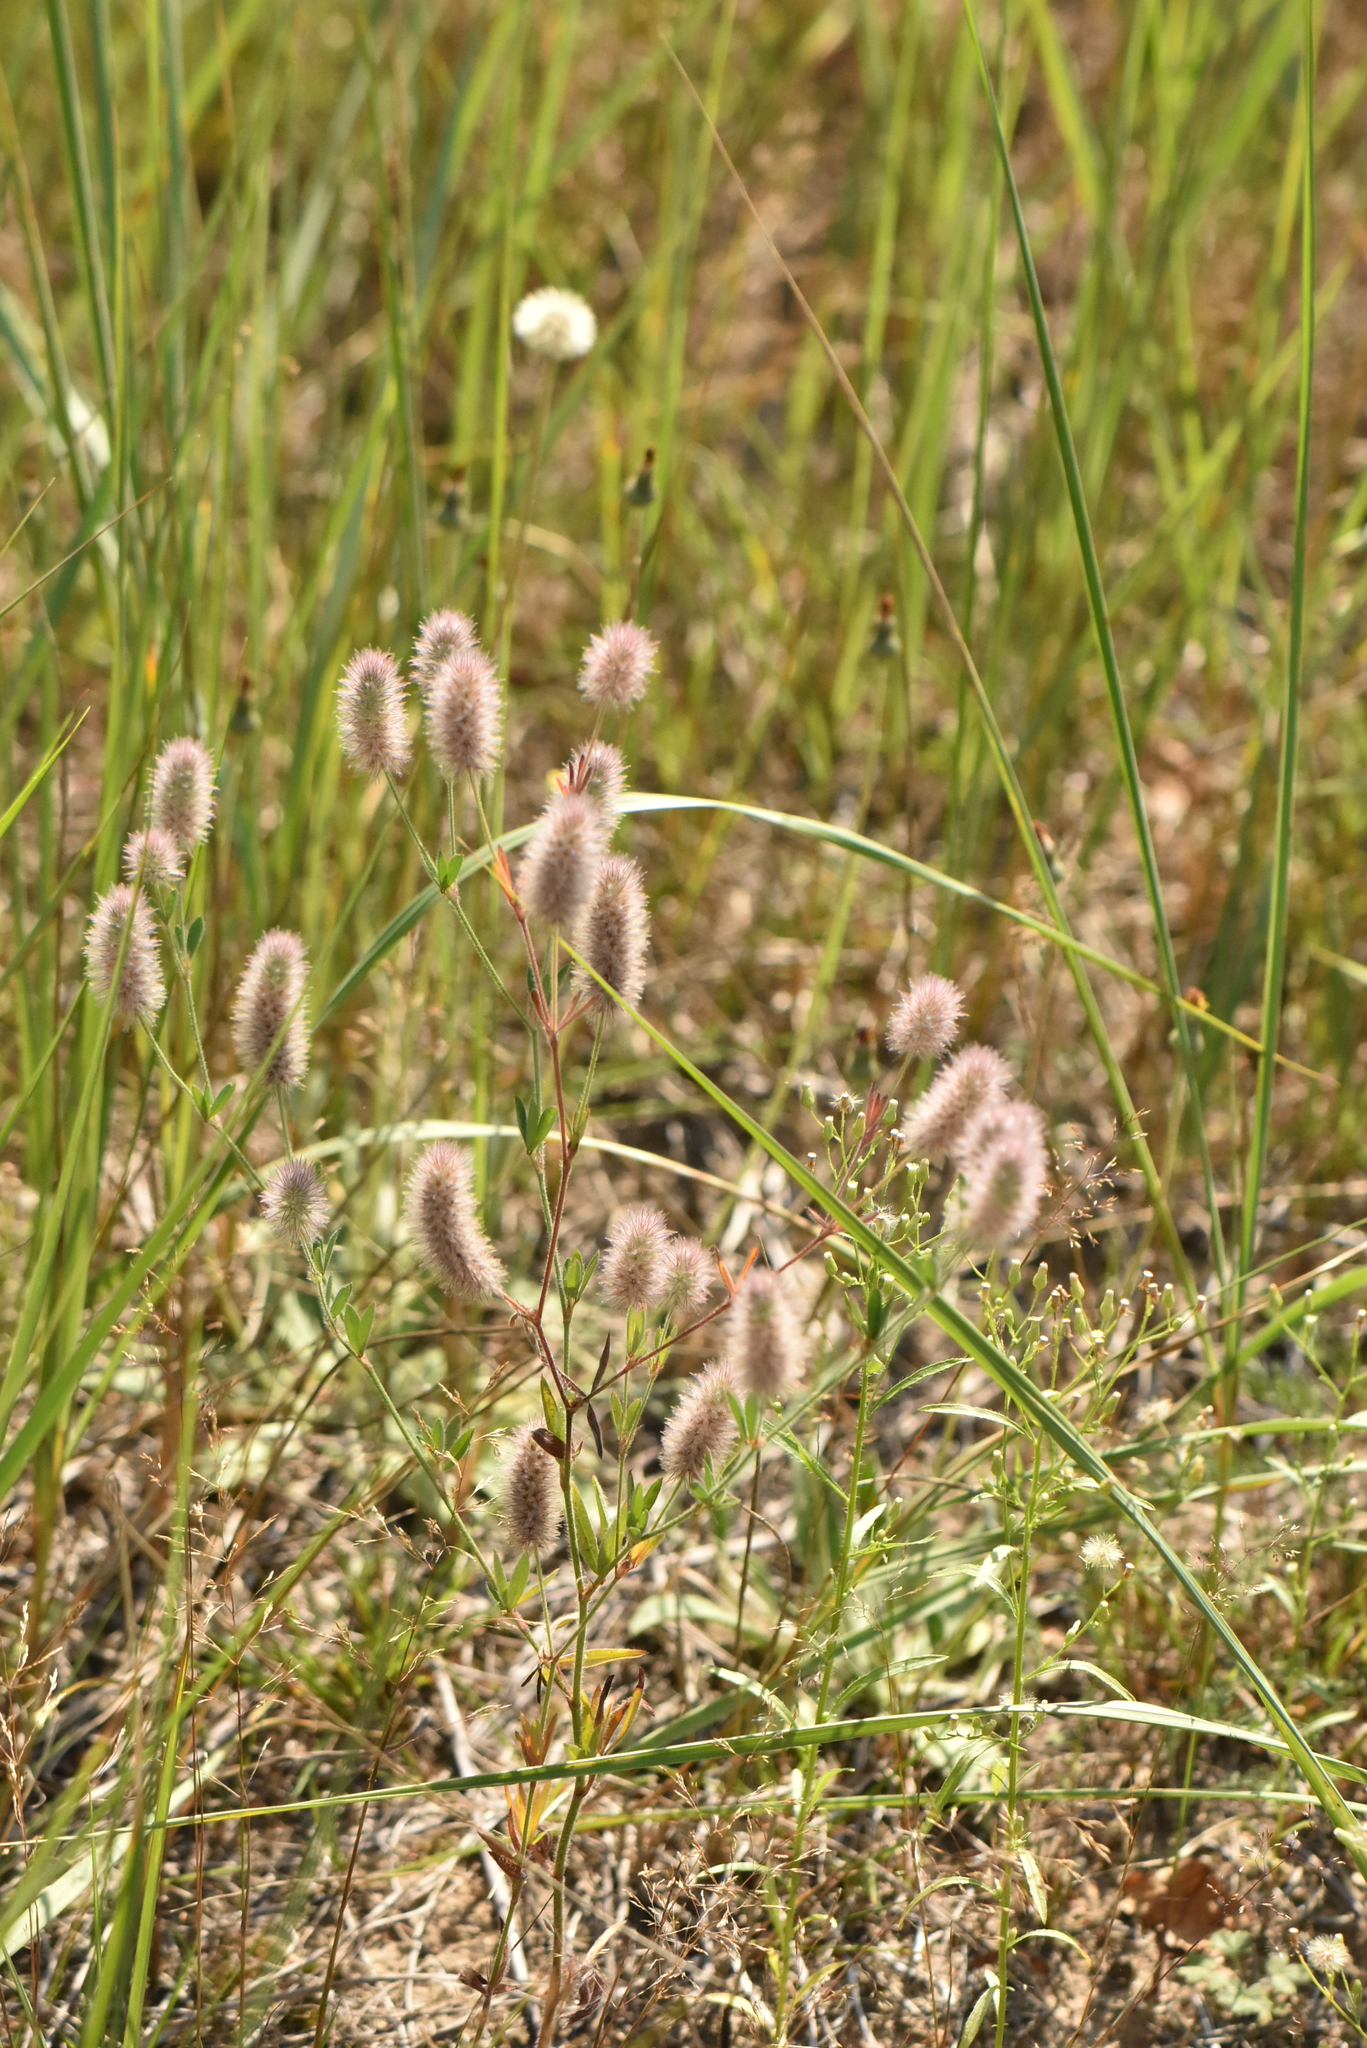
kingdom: Plantae
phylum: Tracheophyta
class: Magnoliopsida
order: Fabales
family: Fabaceae
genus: Trifolium
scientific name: Trifolium arvense
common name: Hare's-foot clover
